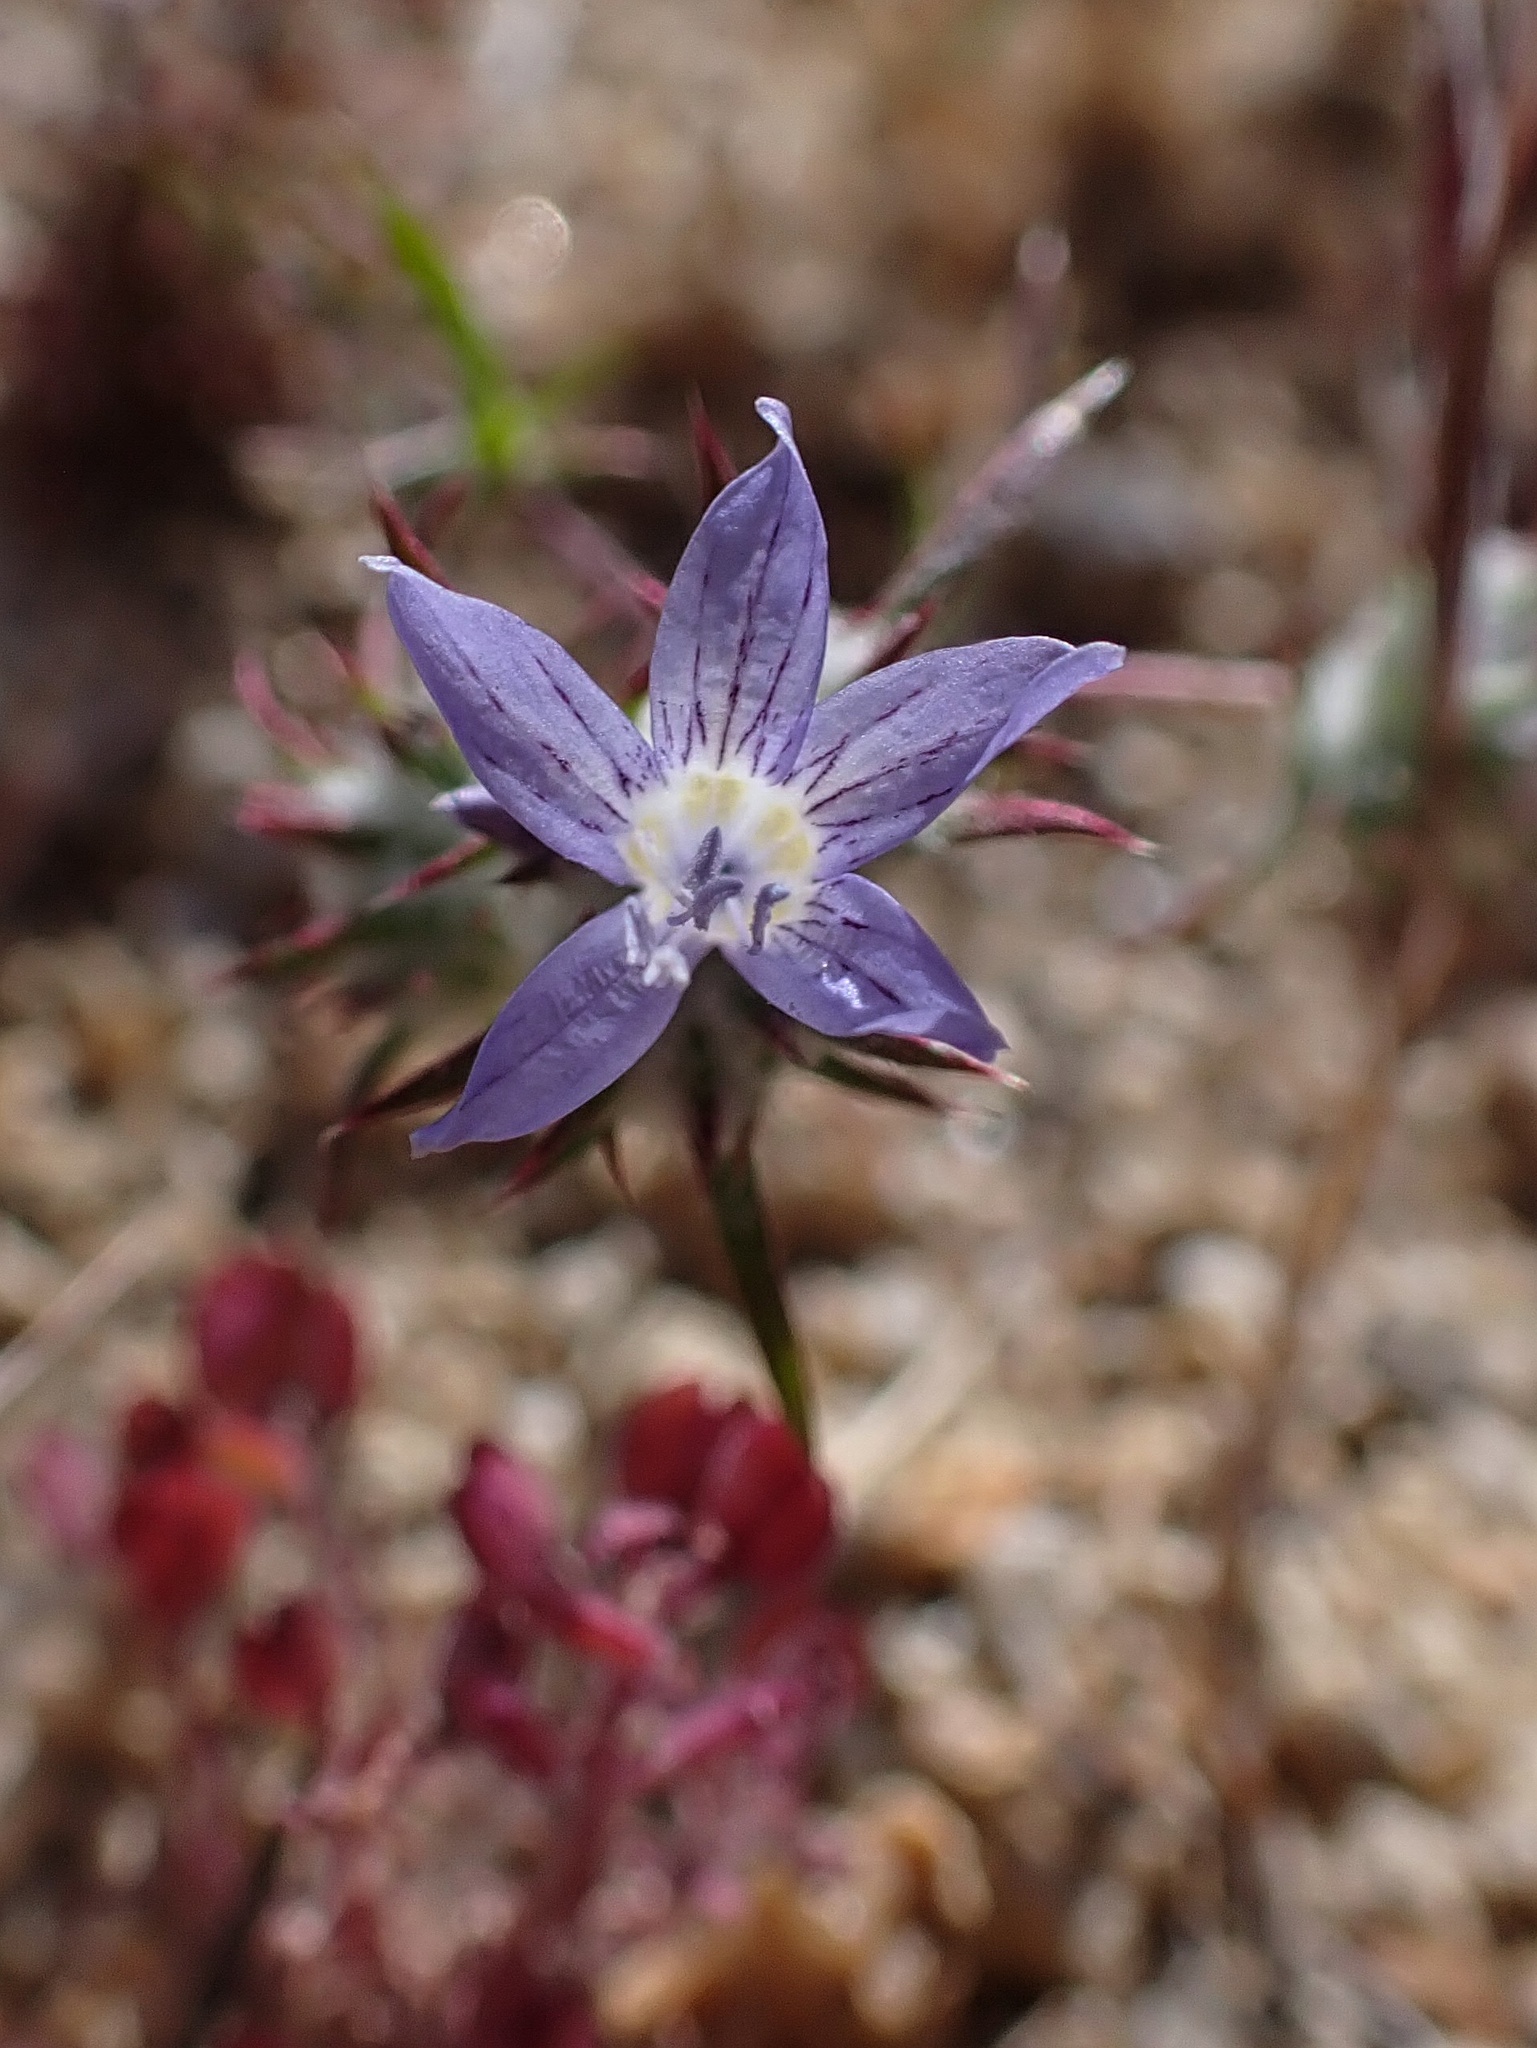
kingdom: Plantae
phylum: Tracheophyta
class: Magnoliopsida
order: Ericales
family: Polemoniaceae
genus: Eriastrum
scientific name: Eriastrum eremicum
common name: Desert eriastrum
